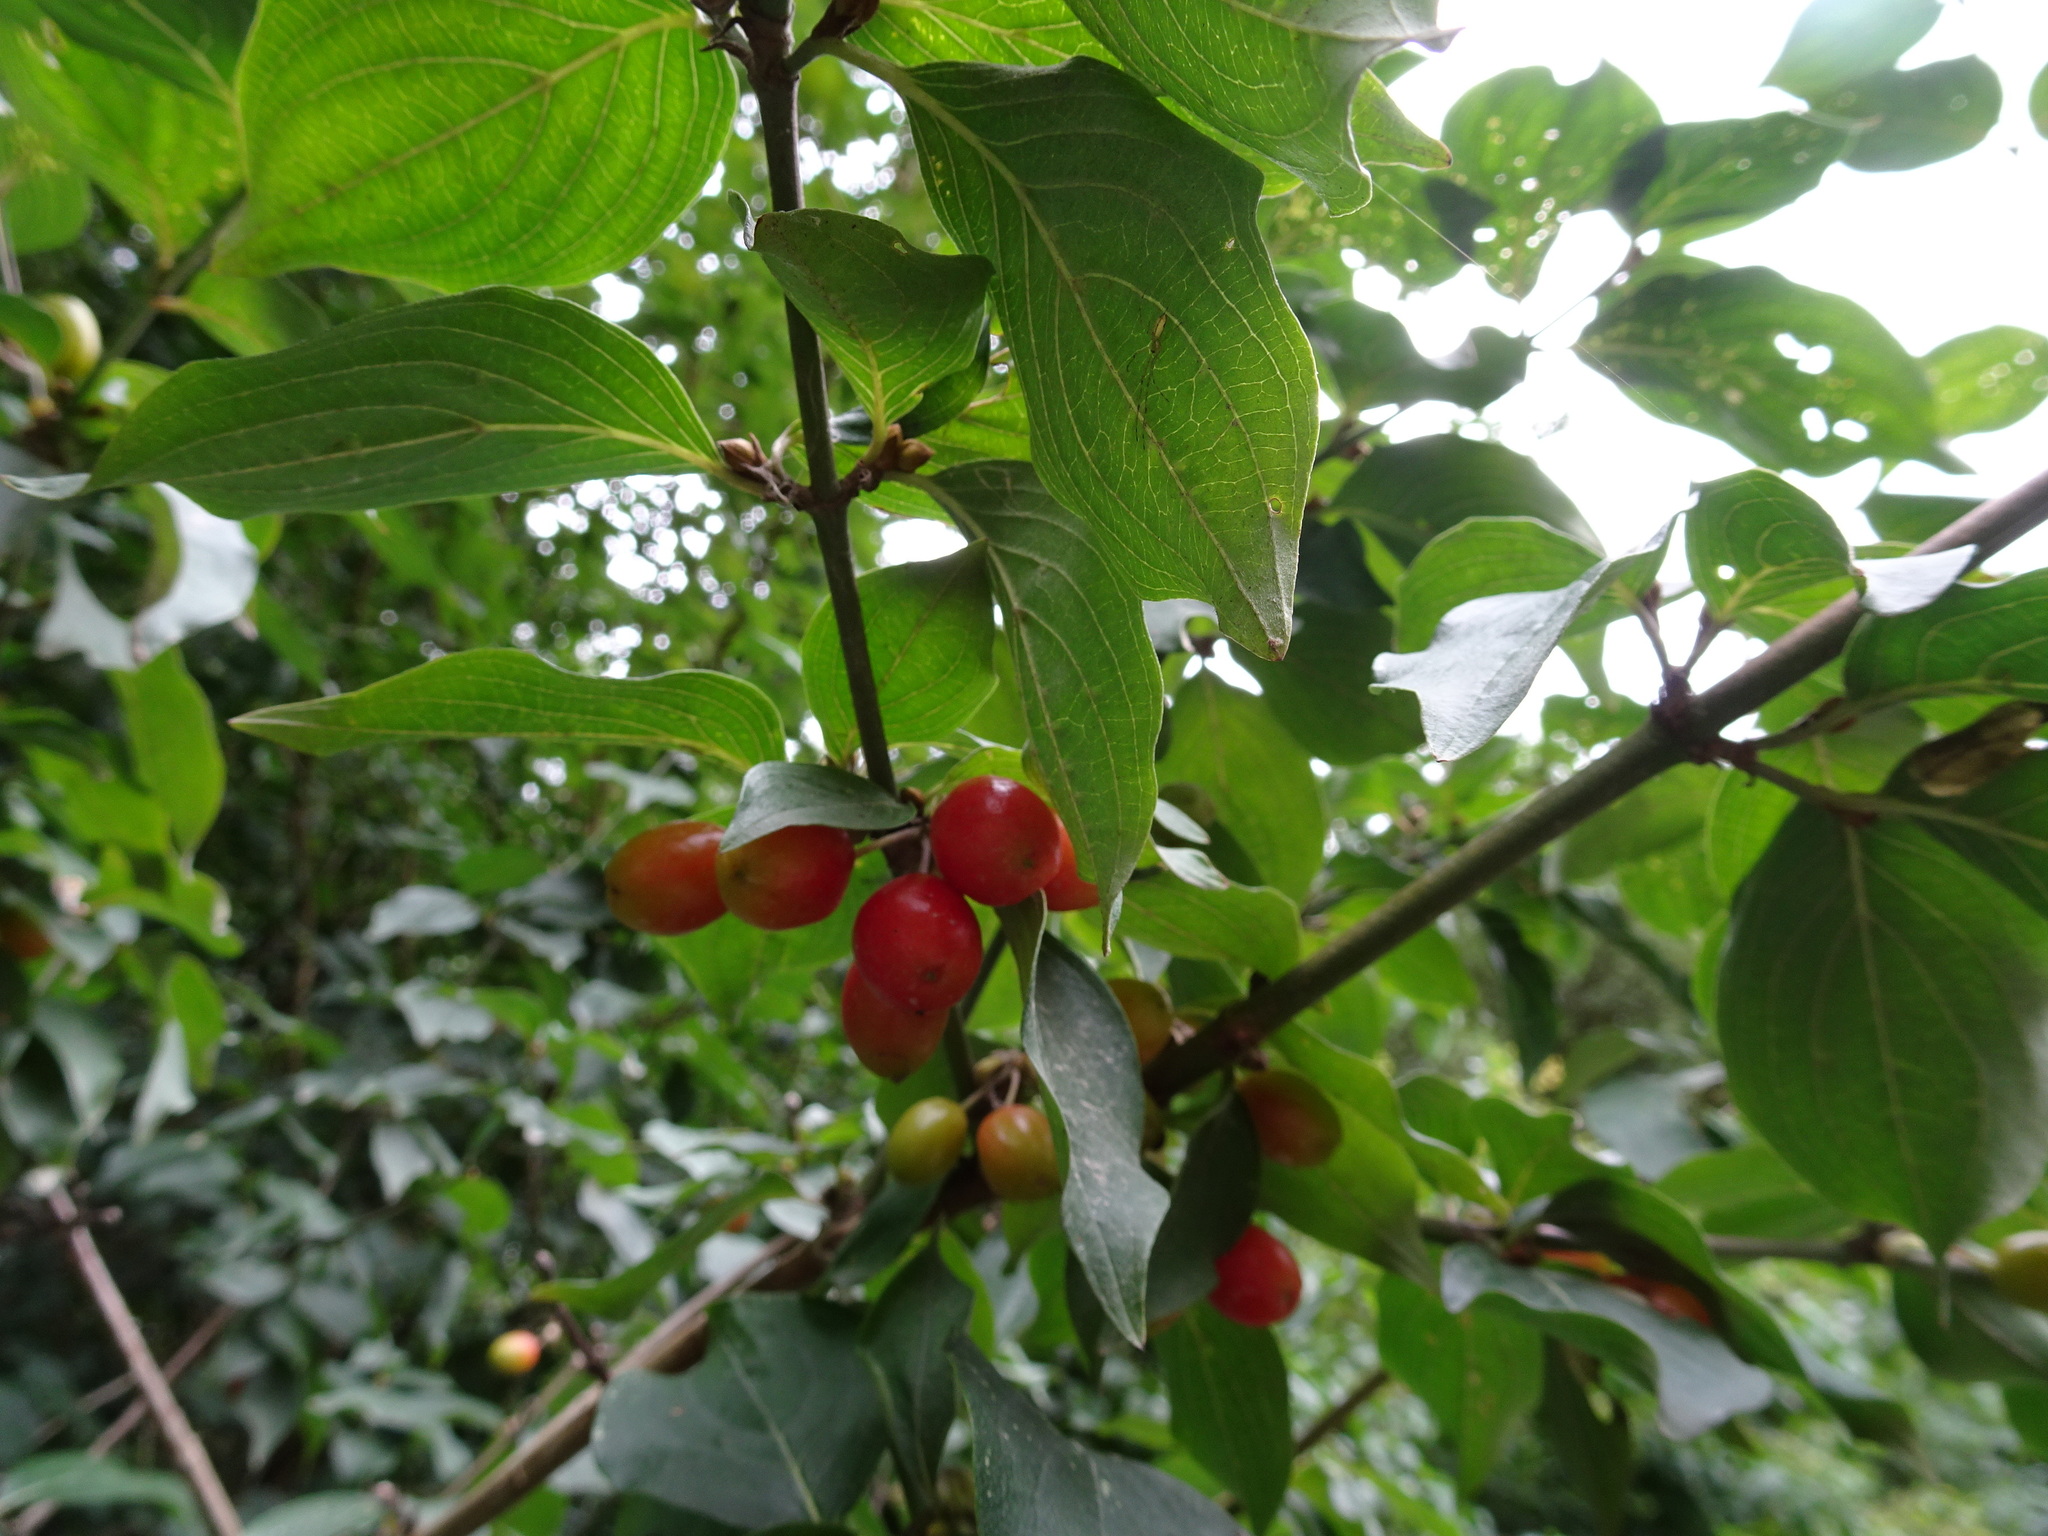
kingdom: Plantae
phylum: Tracheophyta
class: Magnoliopsida
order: Cornales
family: Cornaceae
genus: Cornus
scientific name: Cornus mas
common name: Cornelian-cherry
